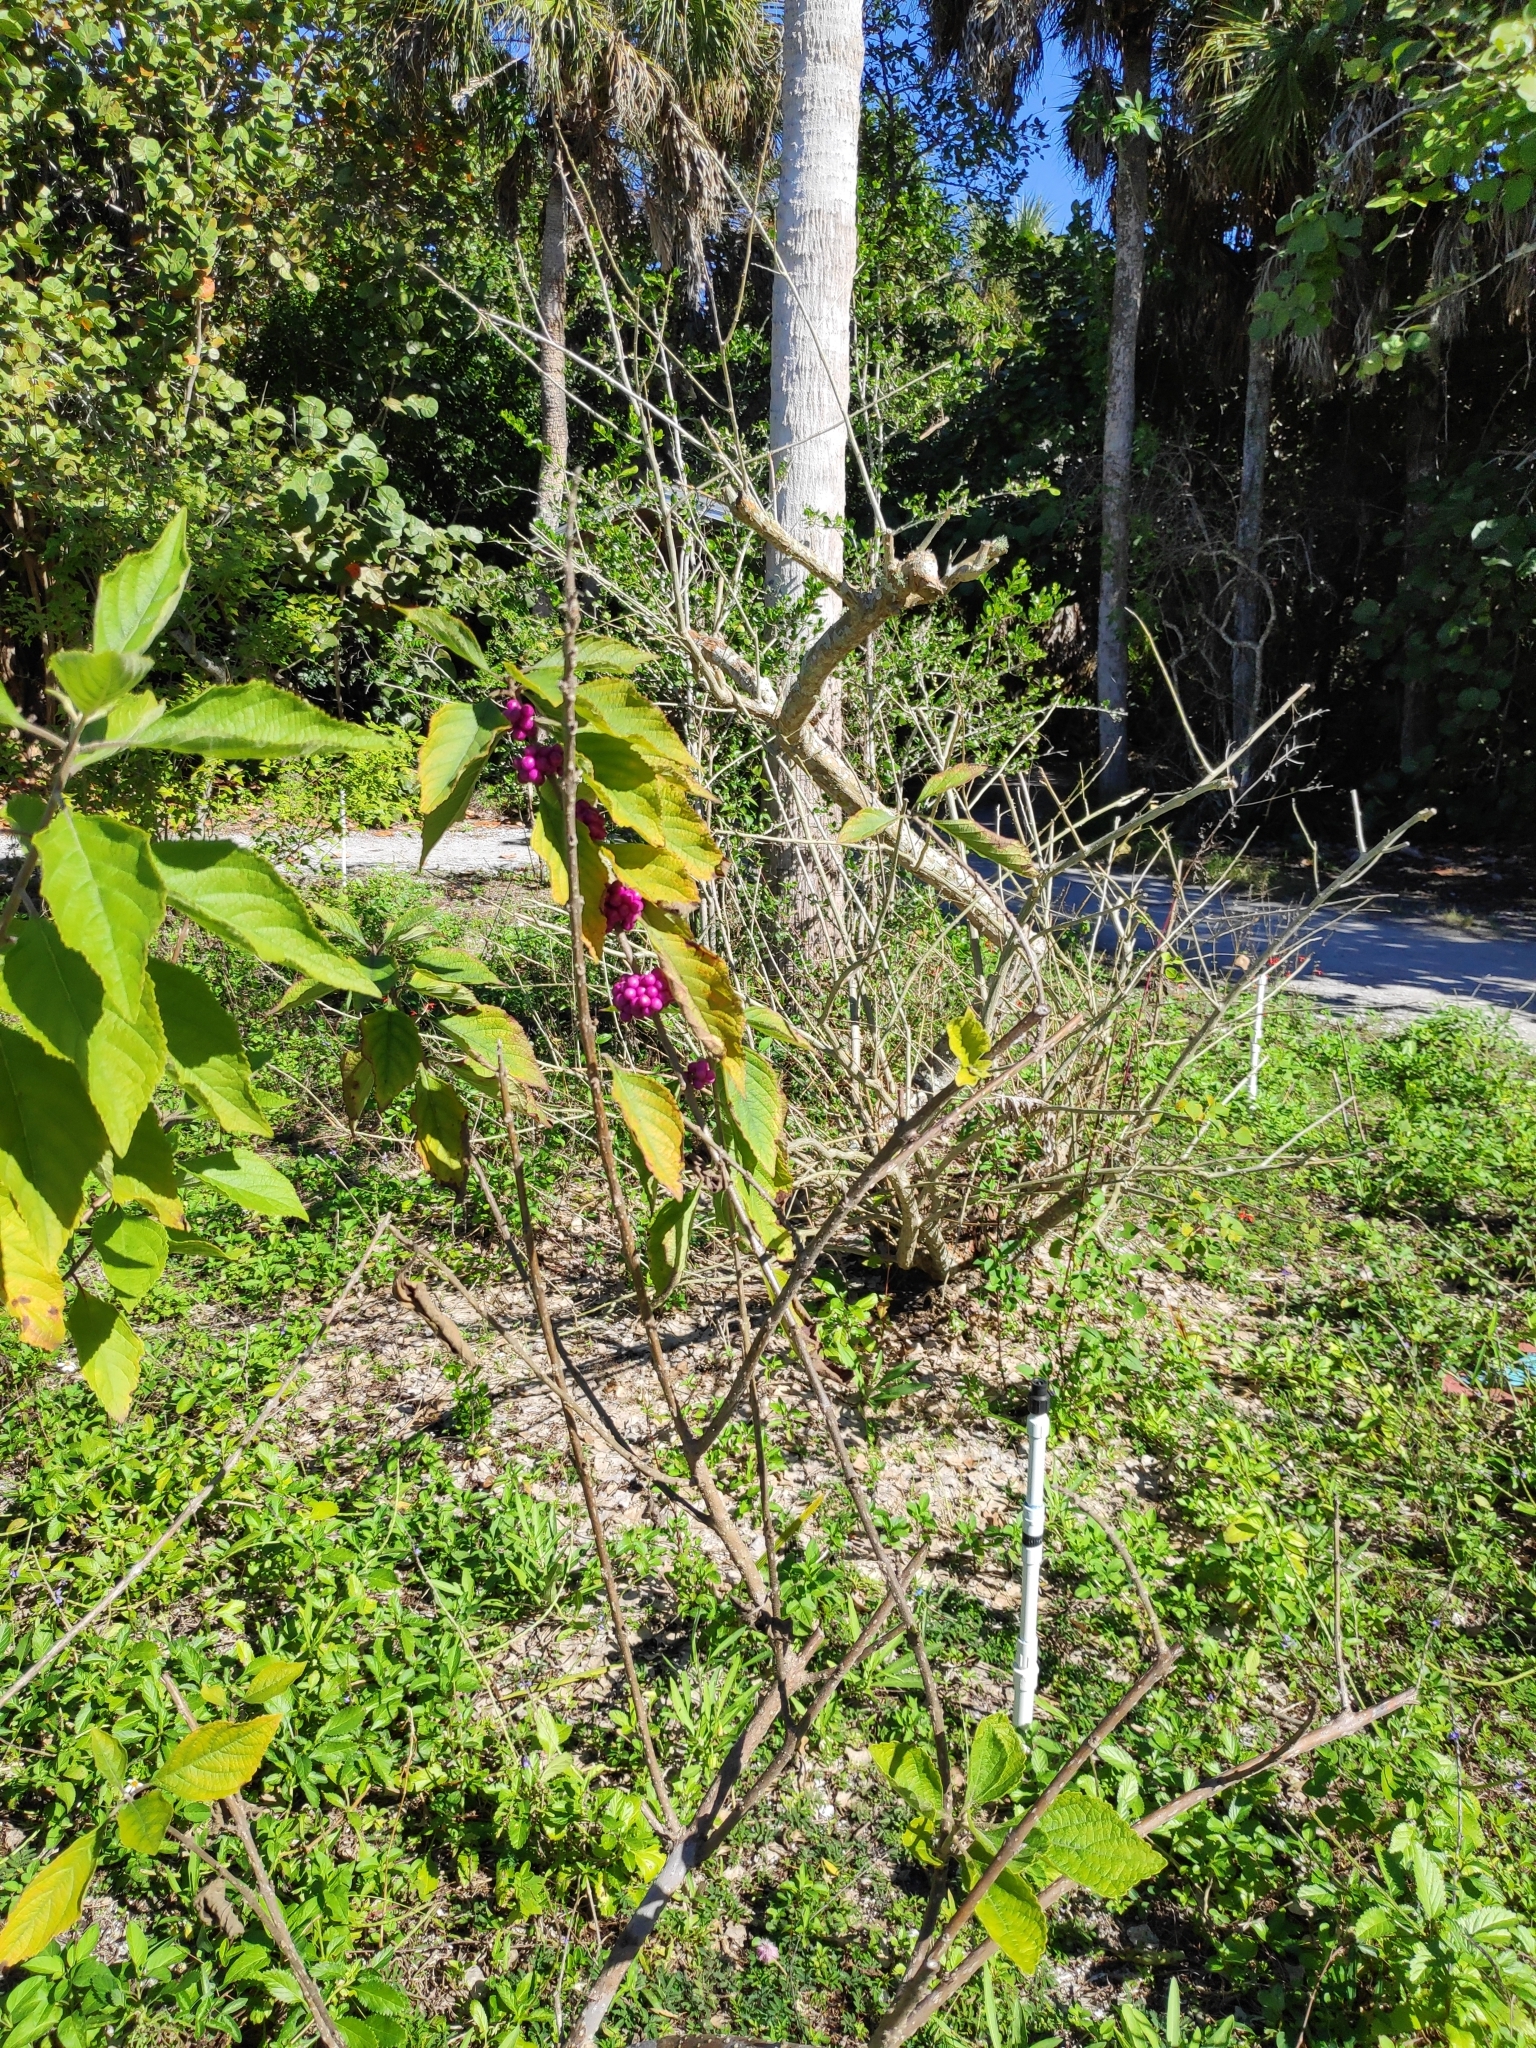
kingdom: Plantae
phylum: Tracheophyta
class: Magnoliopsida
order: Lamiales
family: Lamiaceae
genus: Callicarpa
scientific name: Callicarpa americana
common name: American beautyberry
